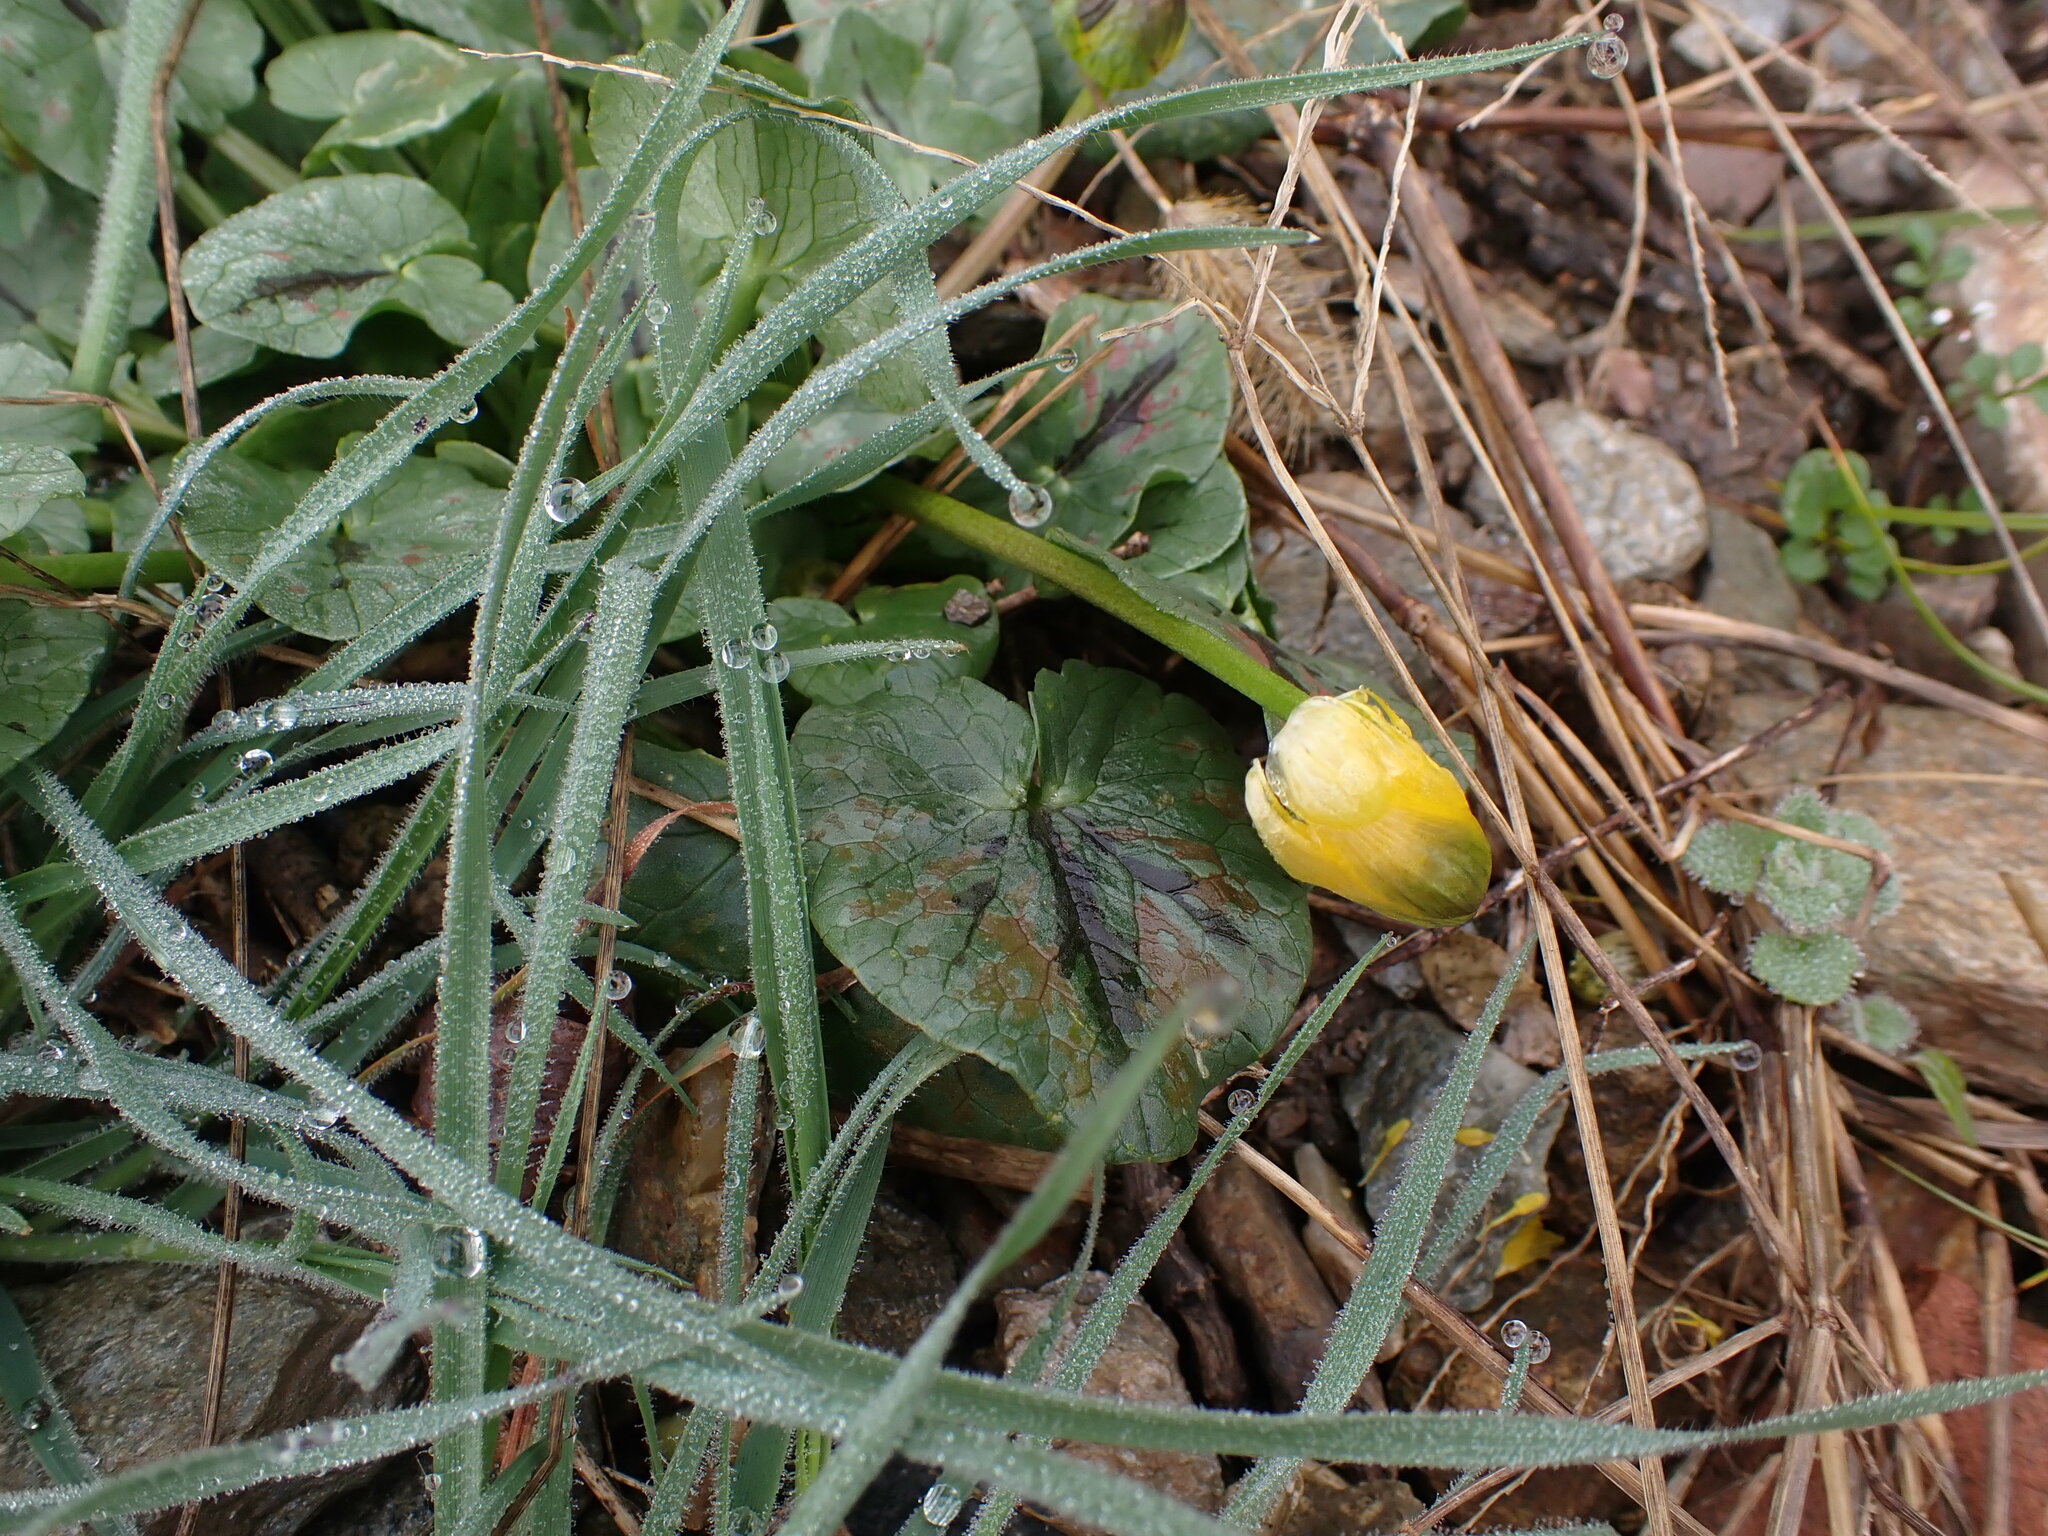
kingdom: Plantae
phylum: Tracheophyta
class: Magnoliopsida
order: Ranunculales
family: Ranunculaceae
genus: Ficaria
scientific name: Ficaria verna
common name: Lesser celandine
